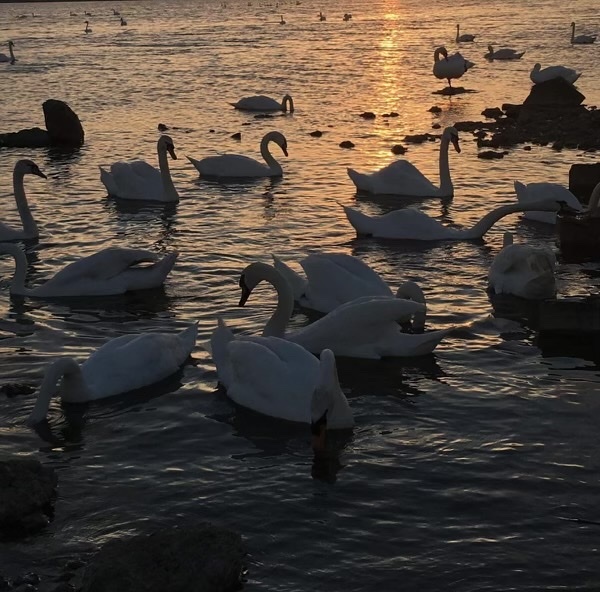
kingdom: Animalia
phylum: Chordata
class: Aves
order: Anseriformes
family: Anatidae
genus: Cygnus
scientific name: Cygnus olor
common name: Mute swan
